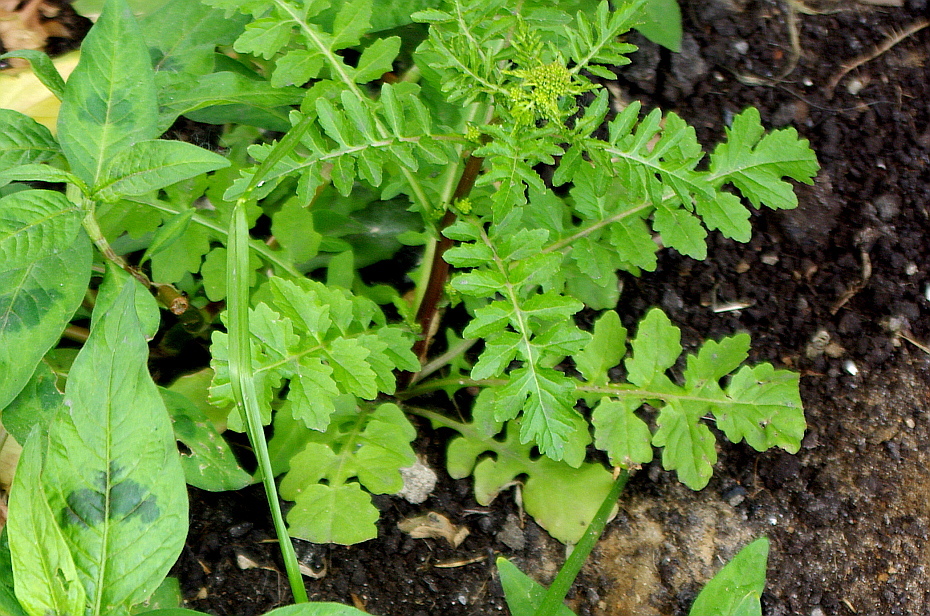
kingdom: Plantae
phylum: Tracheophyta
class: Magnoliopsida
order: Brassicales
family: Brassicaceae
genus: Rorippa
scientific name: Rorippa palustris
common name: Marsh yellow-cress
